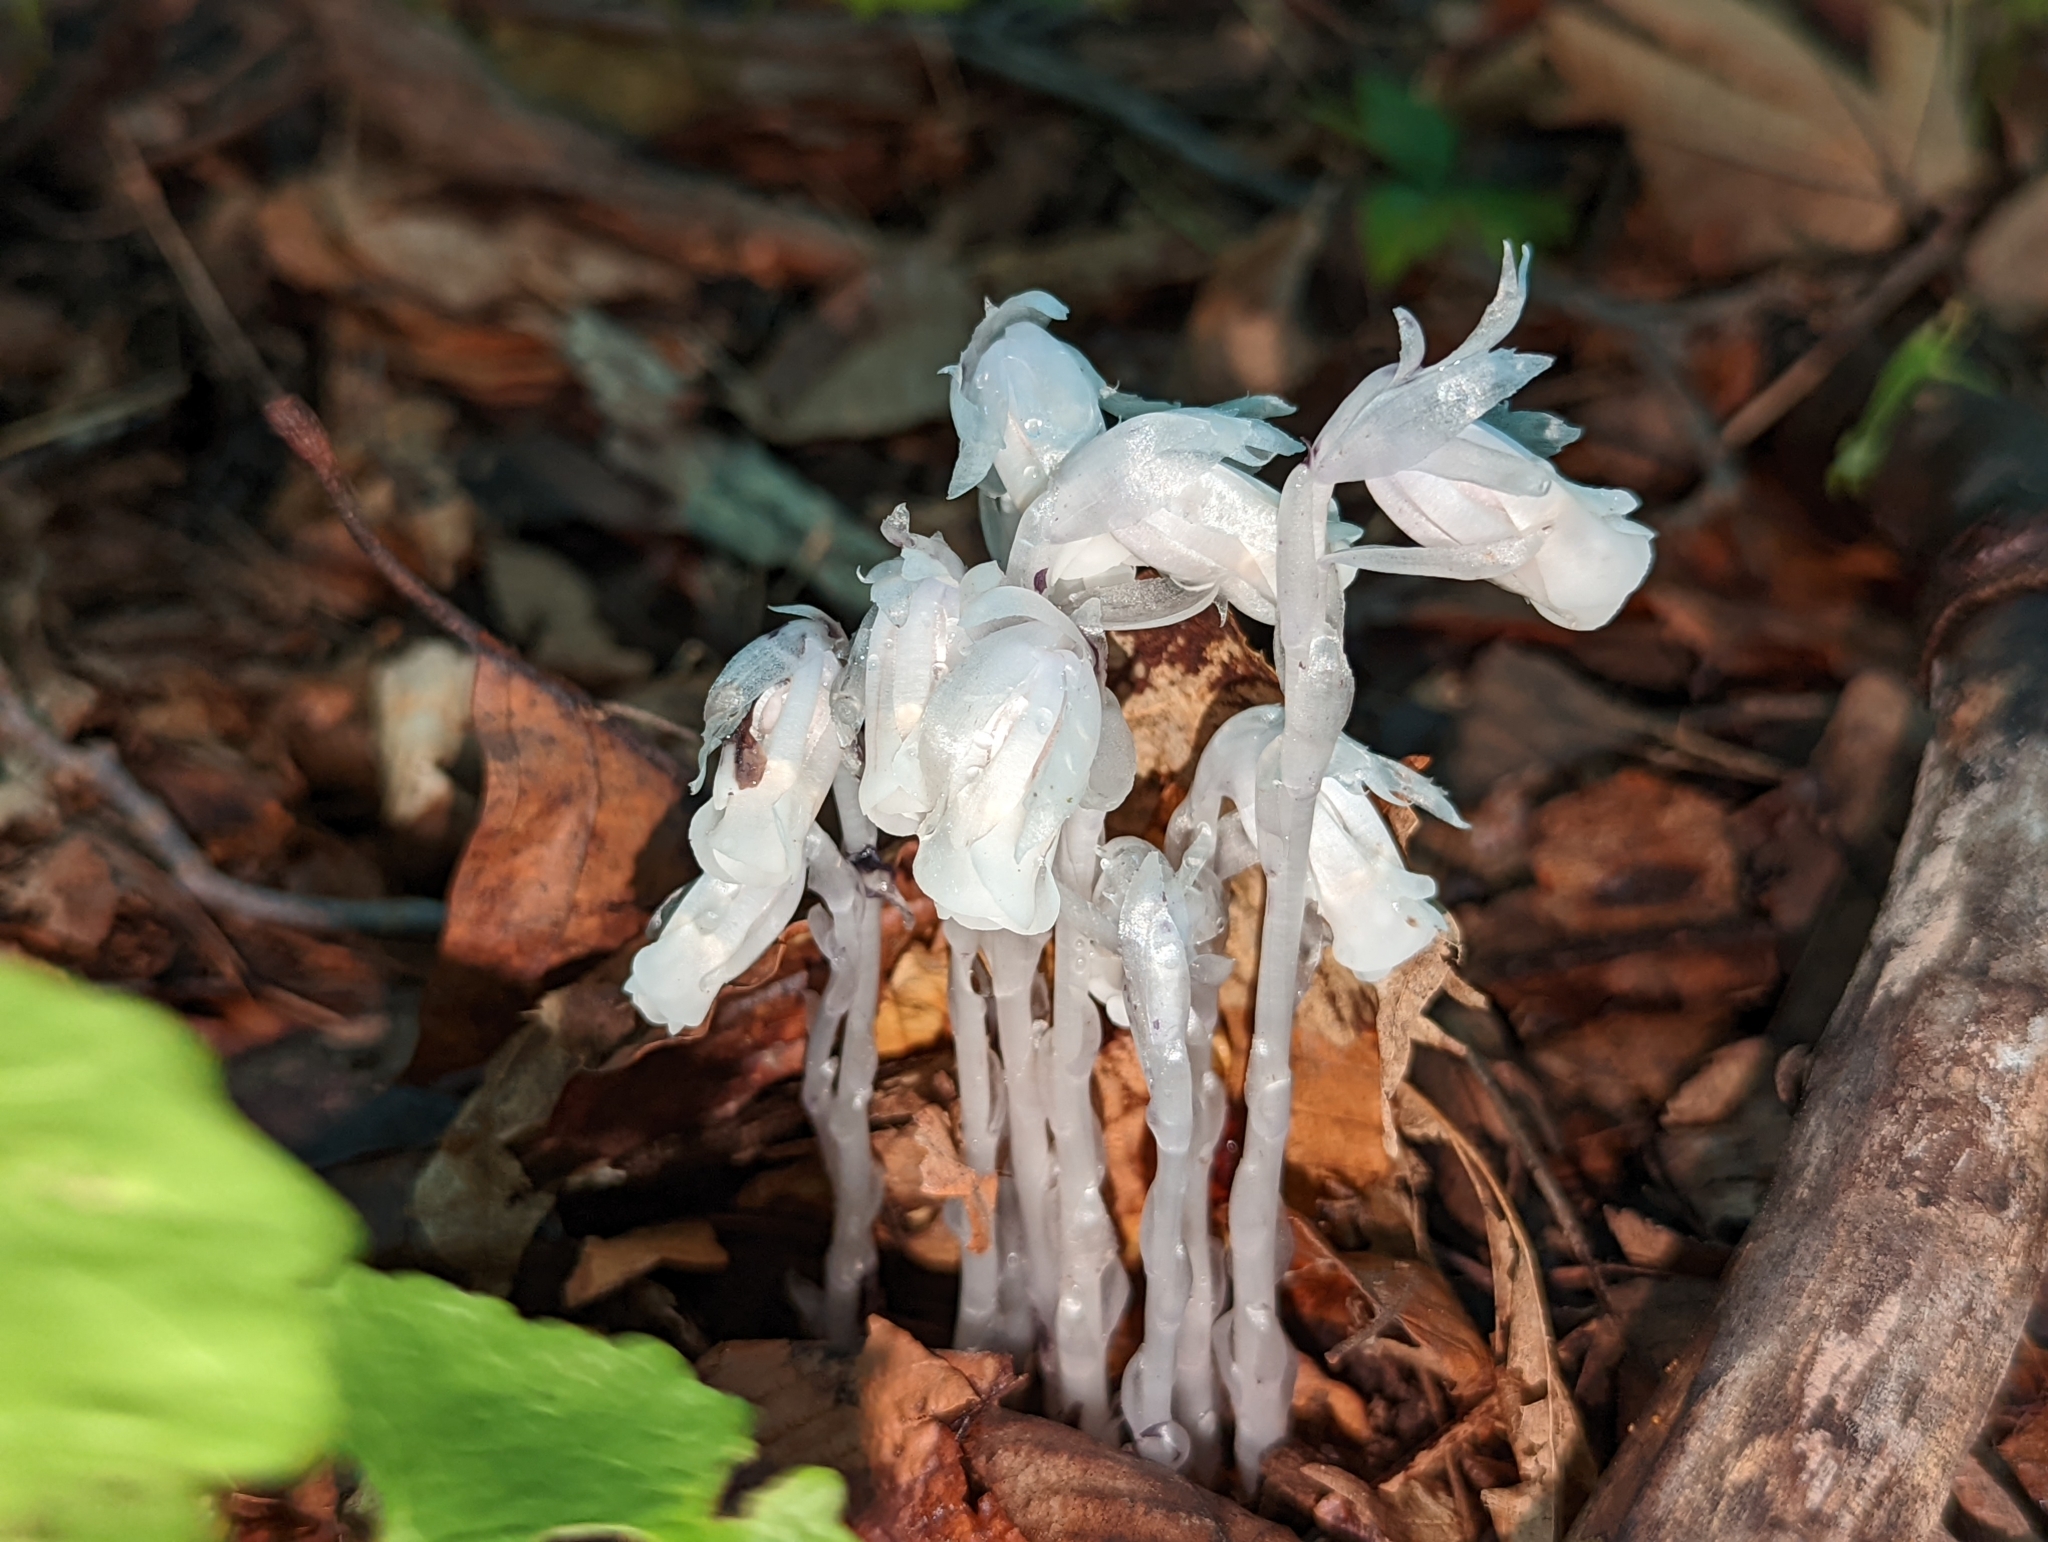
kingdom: Plantae
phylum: Tracheophyta
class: Magnoliopsida
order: Ericales
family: Ericaceae
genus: Monotropa
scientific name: Monotropa uniflora
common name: Convulsion root
